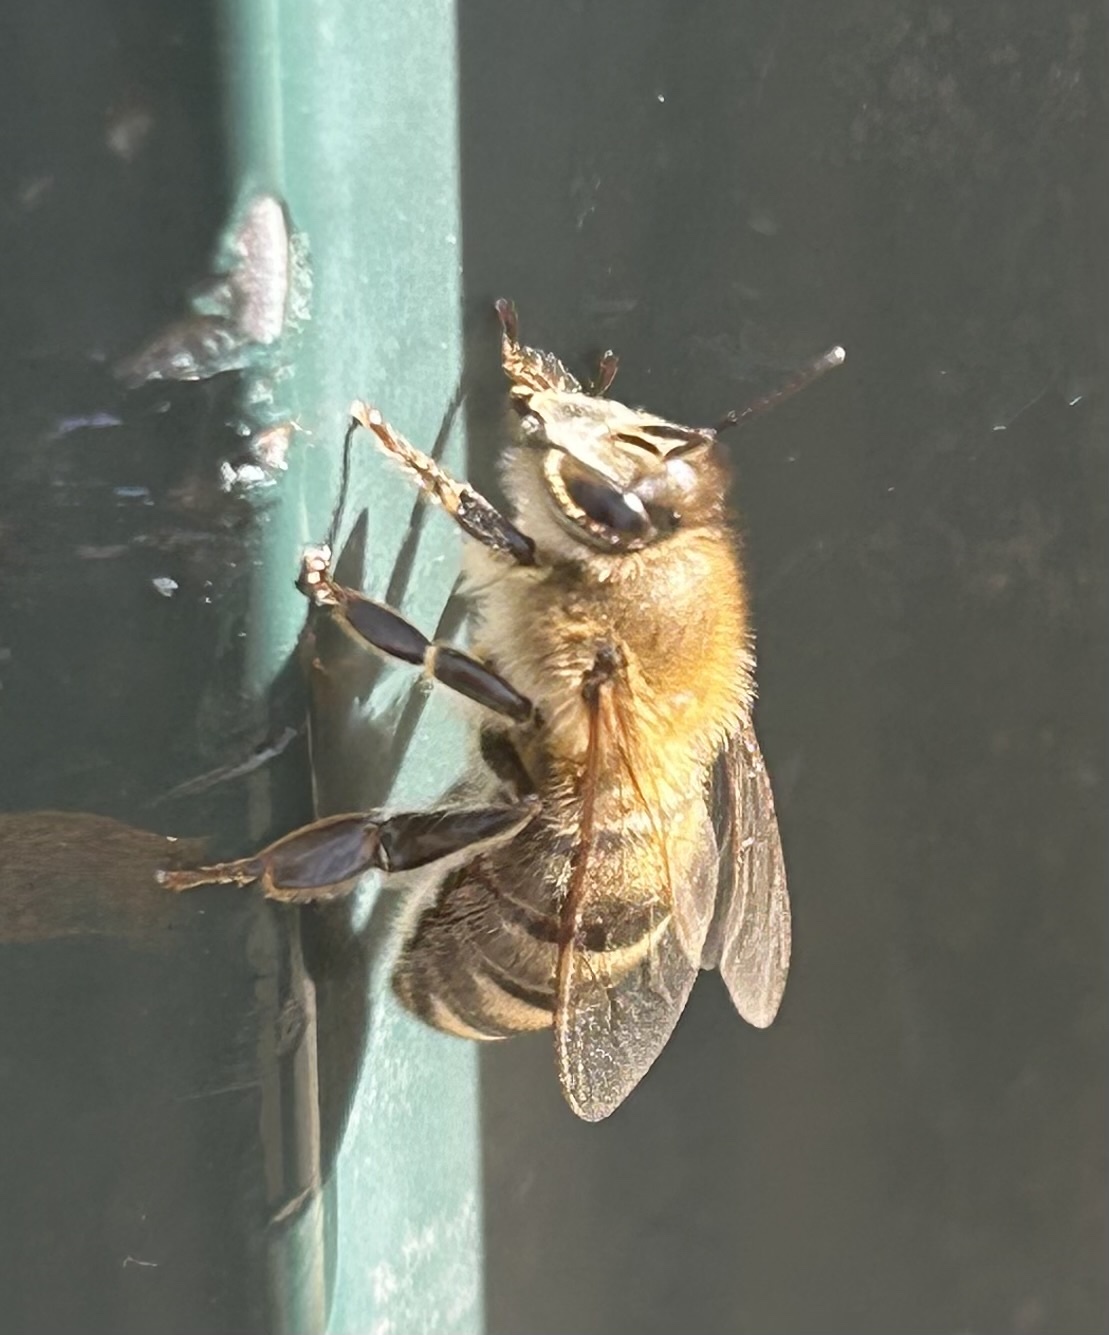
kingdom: Animalia
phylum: Arthropoda
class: Insecta
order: Hymenoptera
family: Apidae
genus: Apis
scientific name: Apis mellifera
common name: Honey bee
